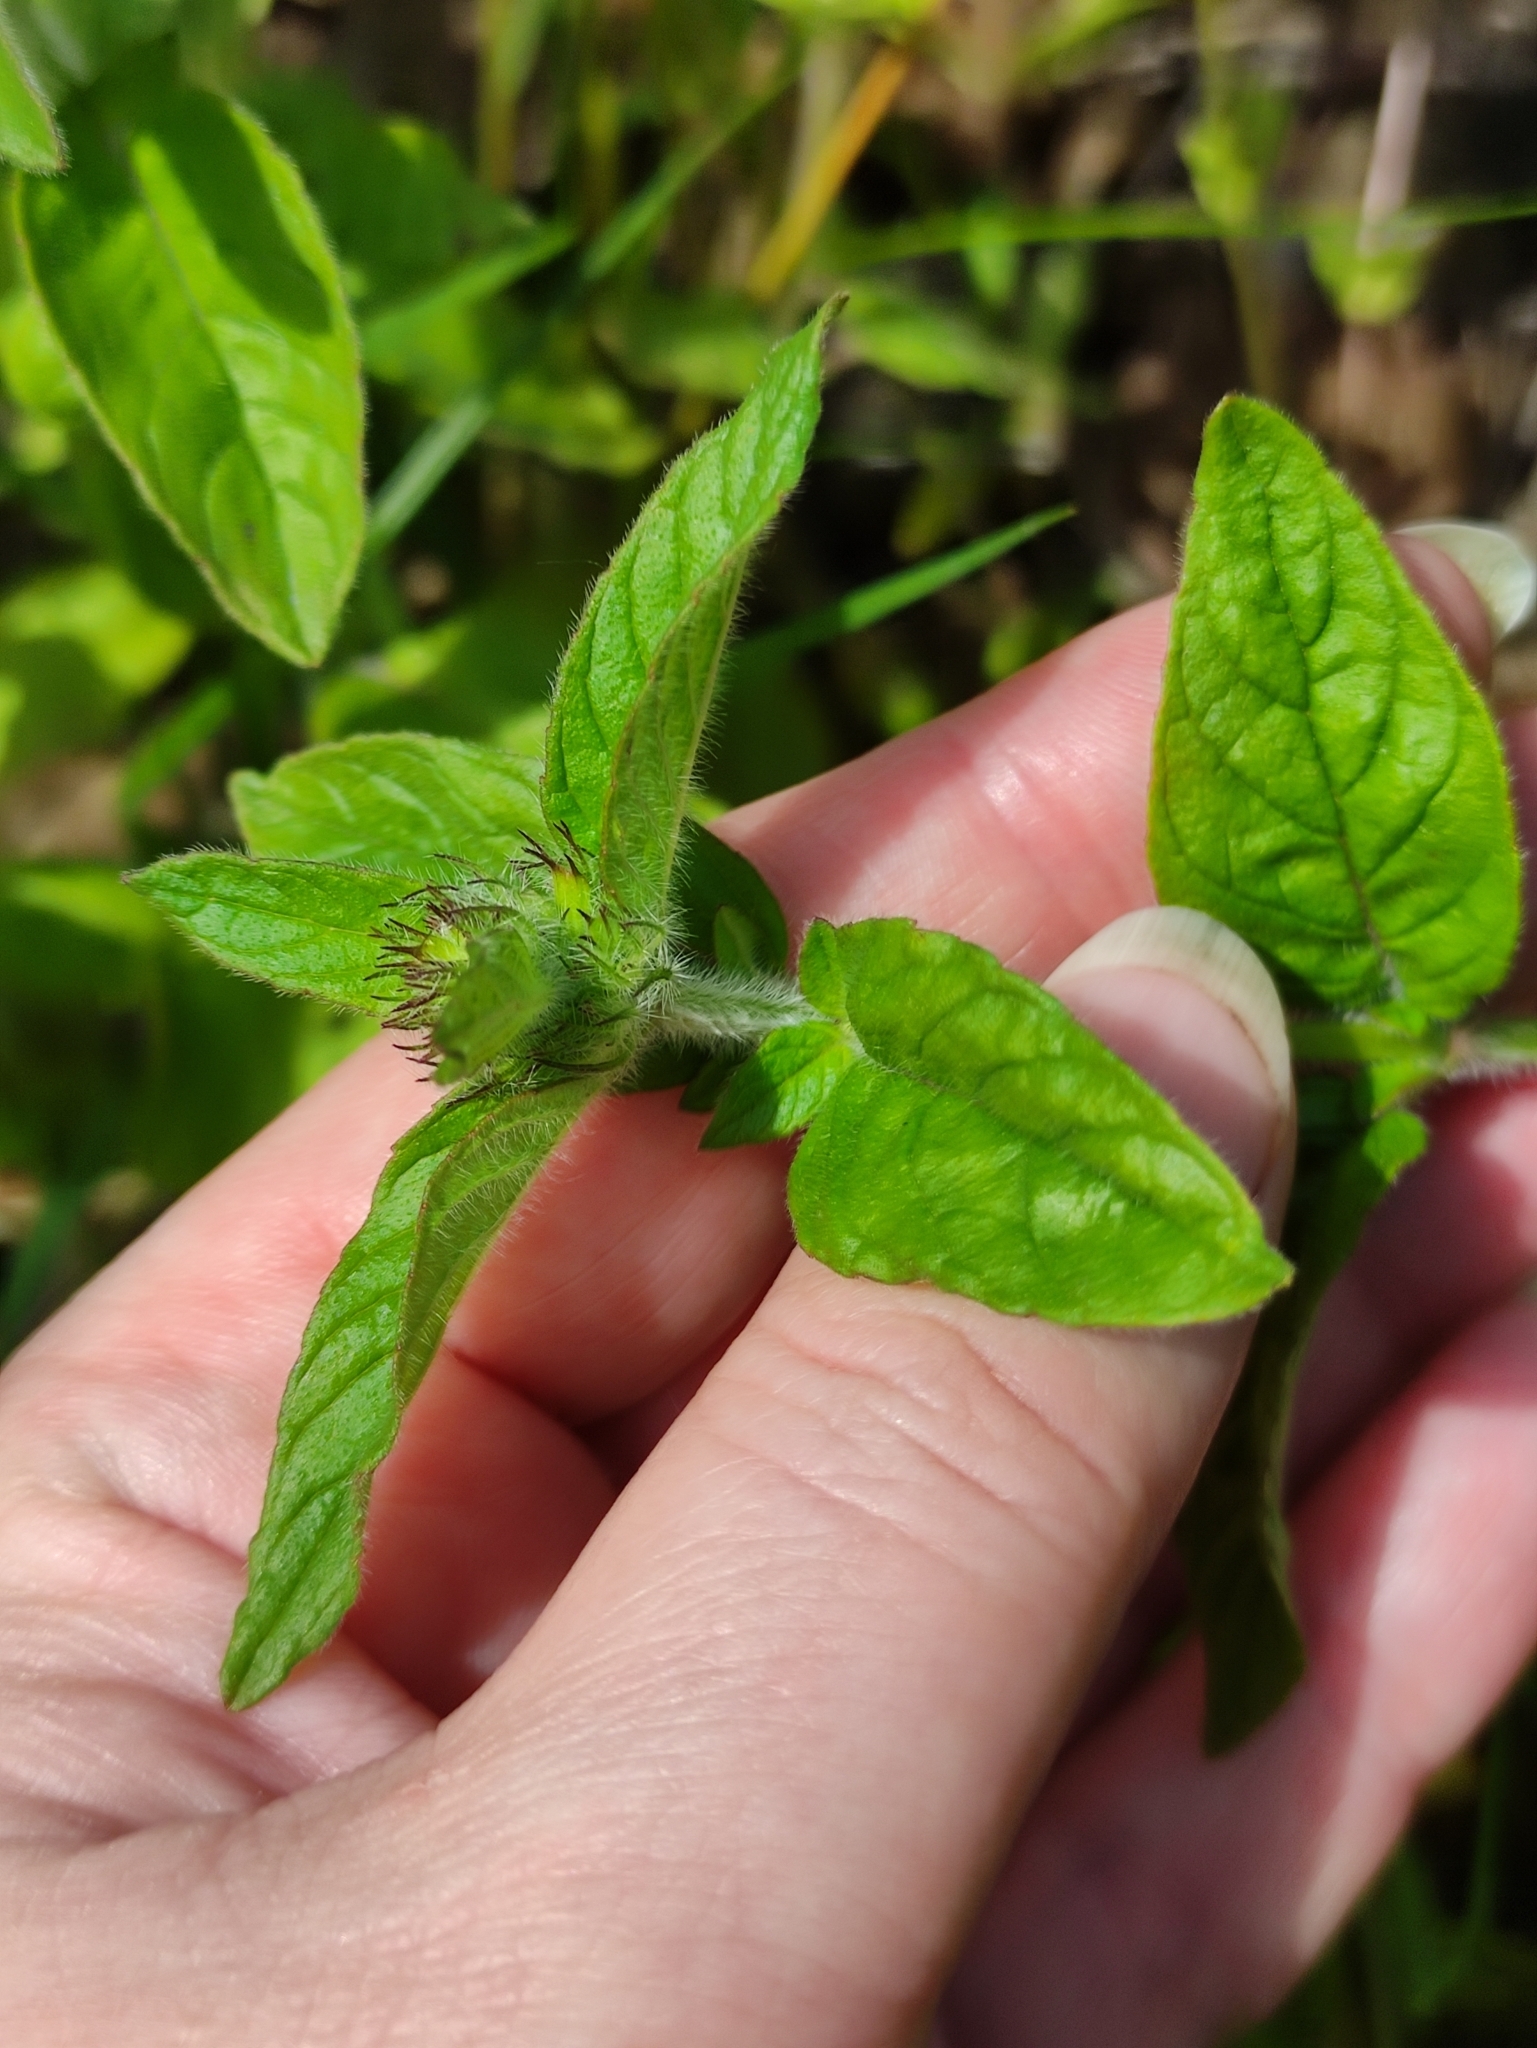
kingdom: Plantae
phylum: Tracheophyta
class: Magnoliopsida
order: Lamiales
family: Lamiaceae
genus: Clinopodium
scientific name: Clinopodium vulgare
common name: Wild basil
